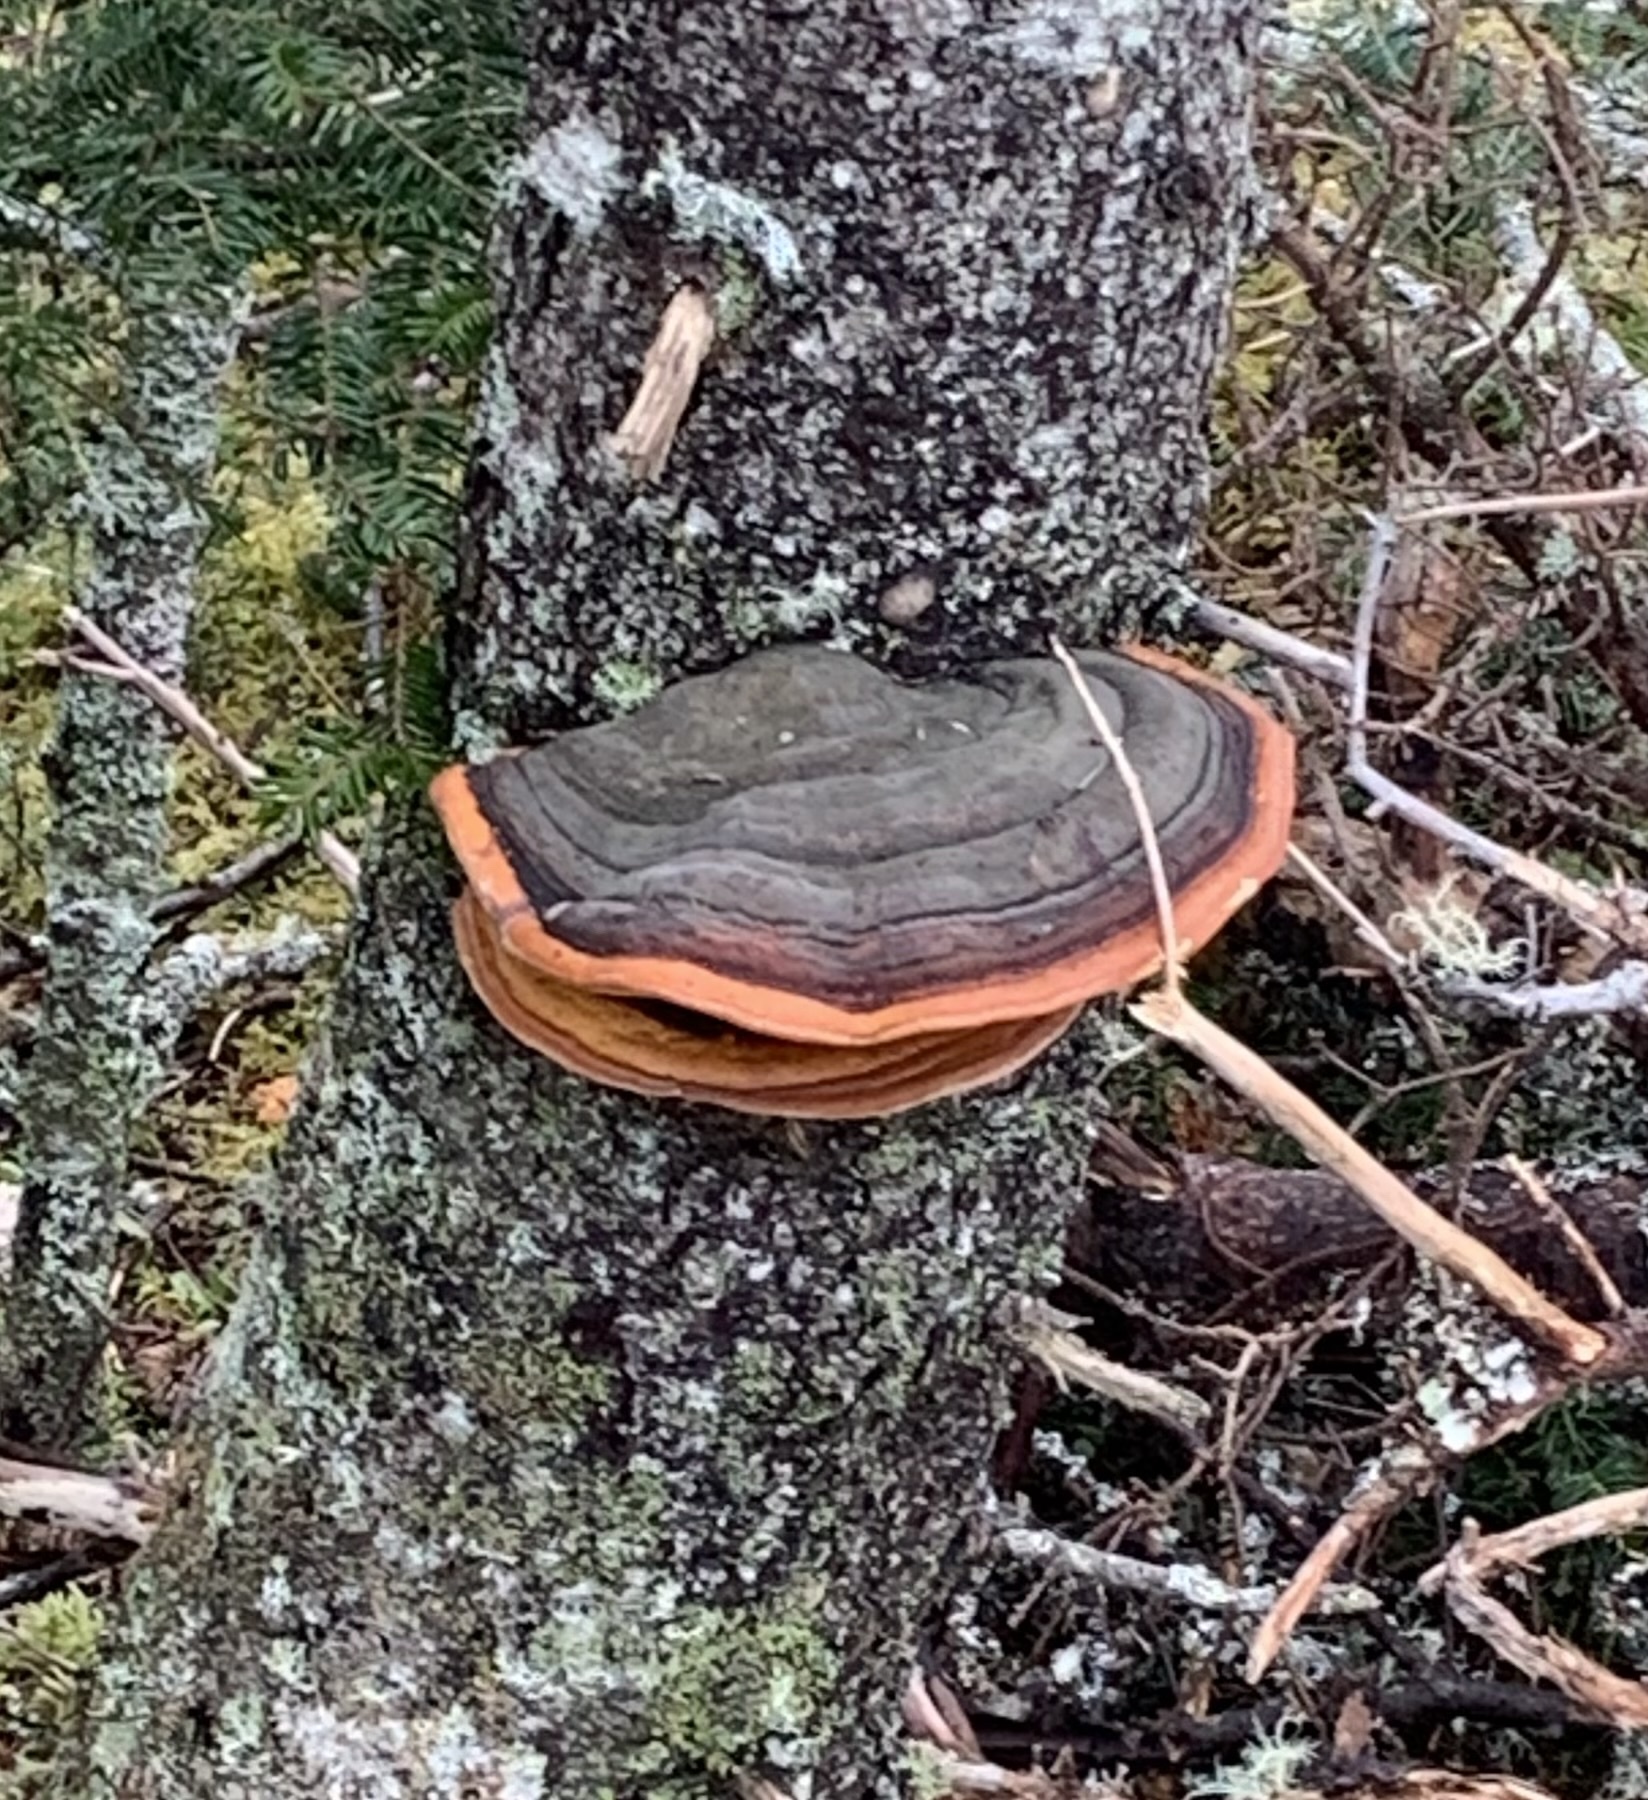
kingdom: Fungi
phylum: Basidiomycota
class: Agaricomycetes
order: Polyporales
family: Fomitopsidaceae
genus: Fomitopsis
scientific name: Fomitopsis mounceae
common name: Northern red belt
